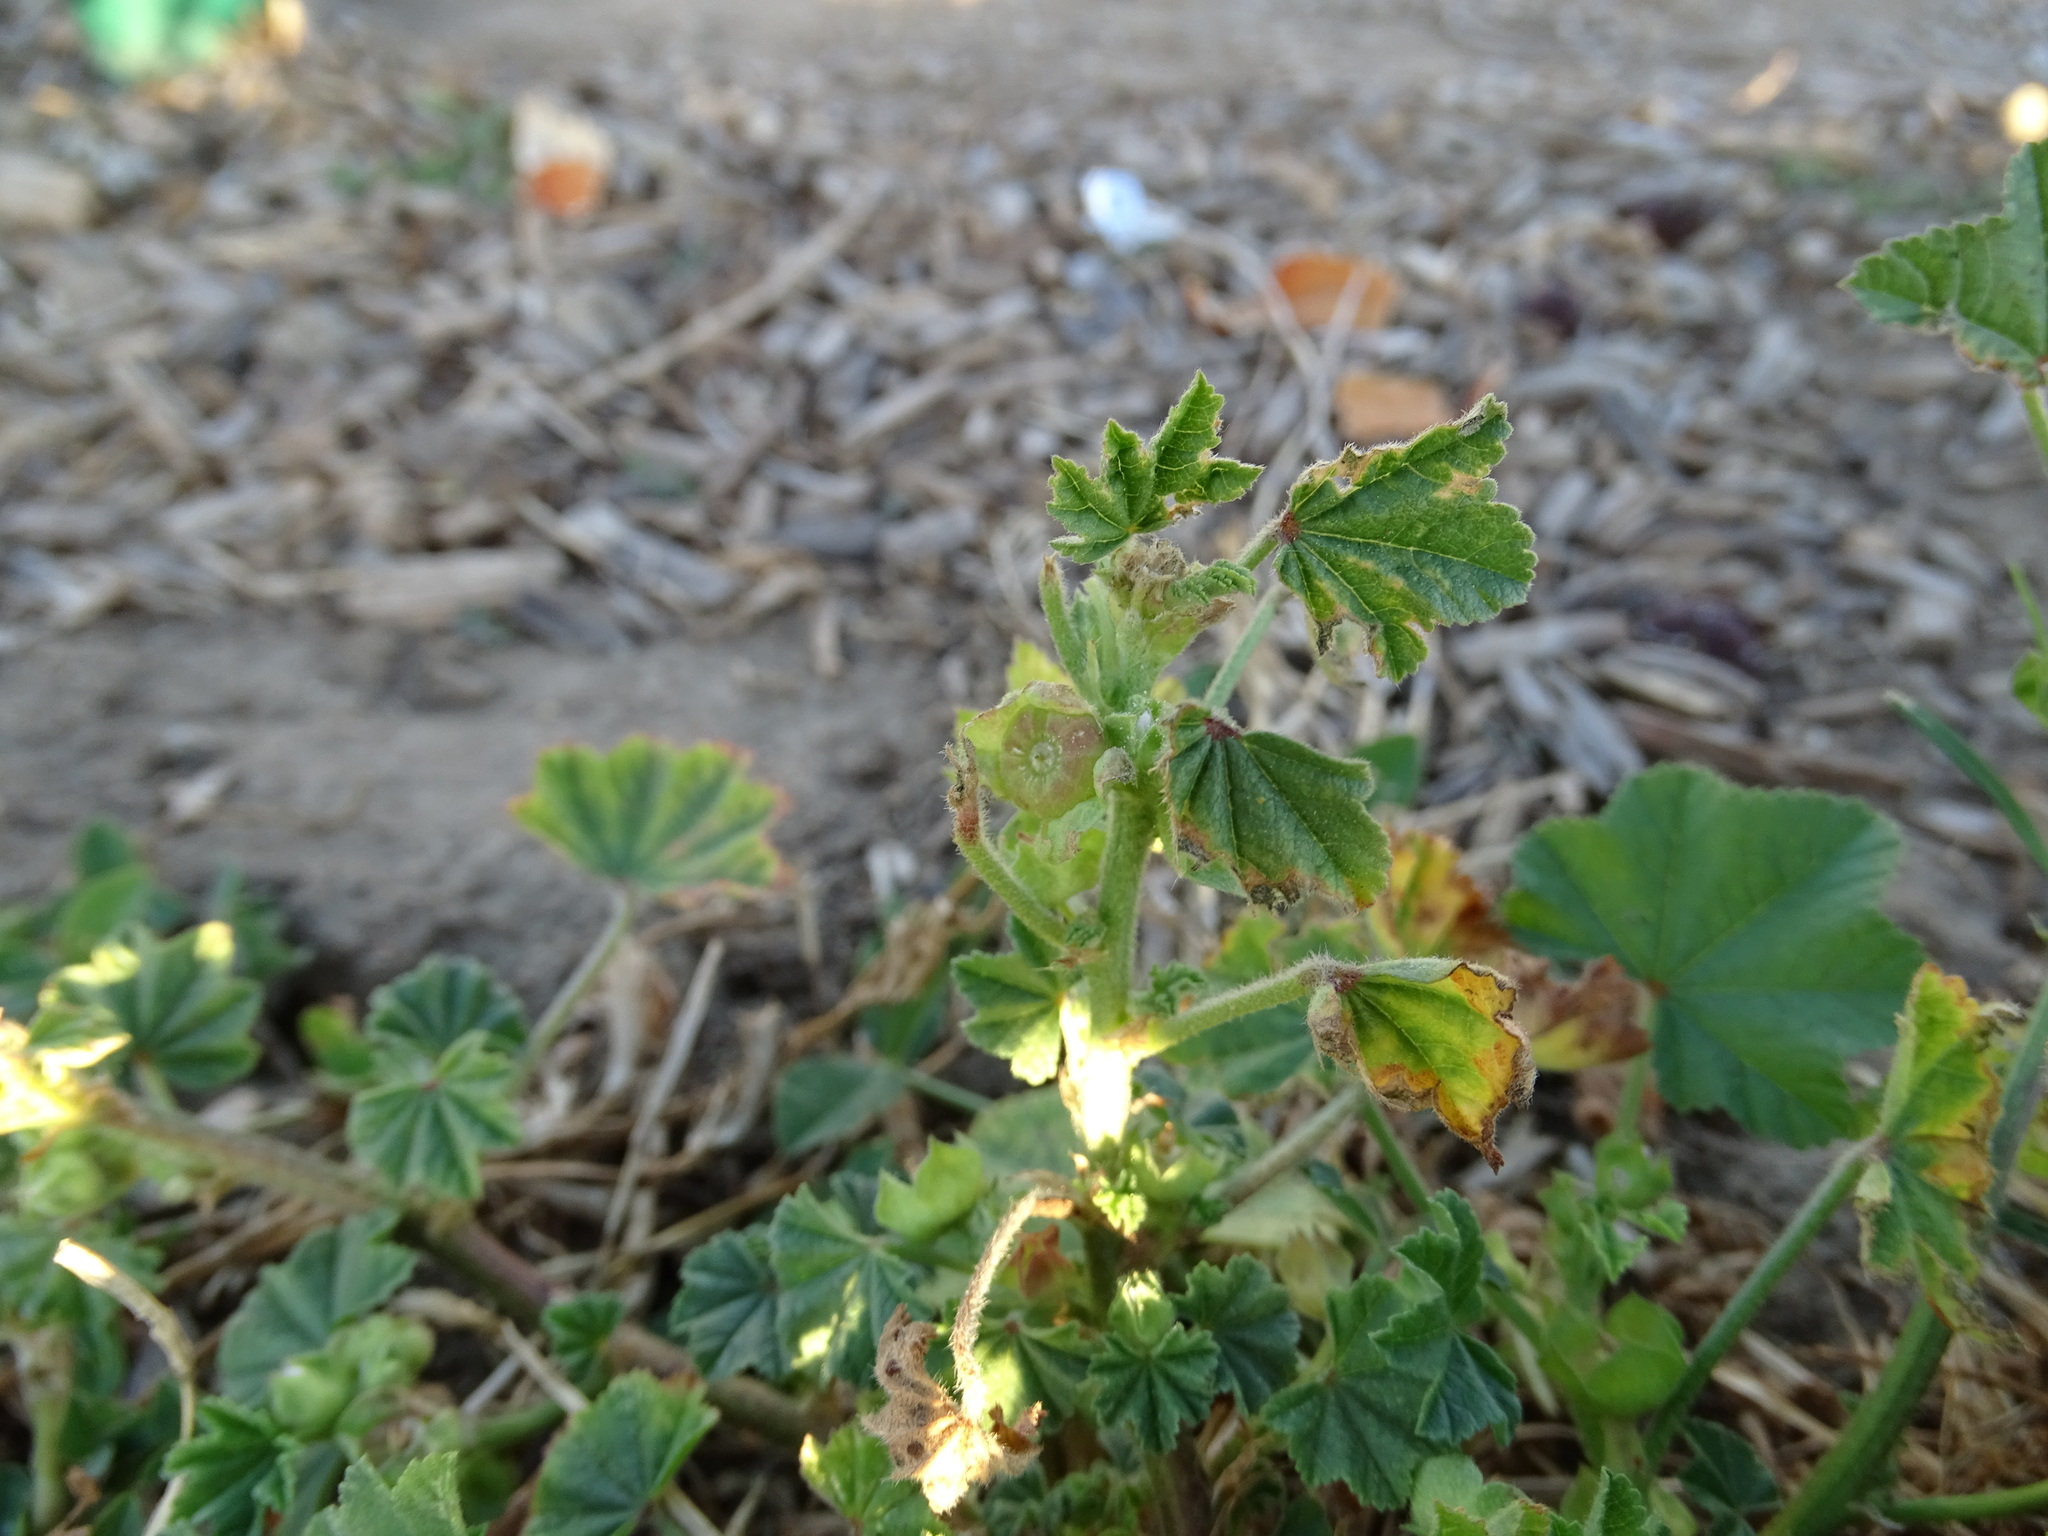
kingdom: Plantae
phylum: Tracheophyta
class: Magnoliopsida
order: Malvales
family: Malvaceae
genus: Malva
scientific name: Malva parviflora
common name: Least mallow
